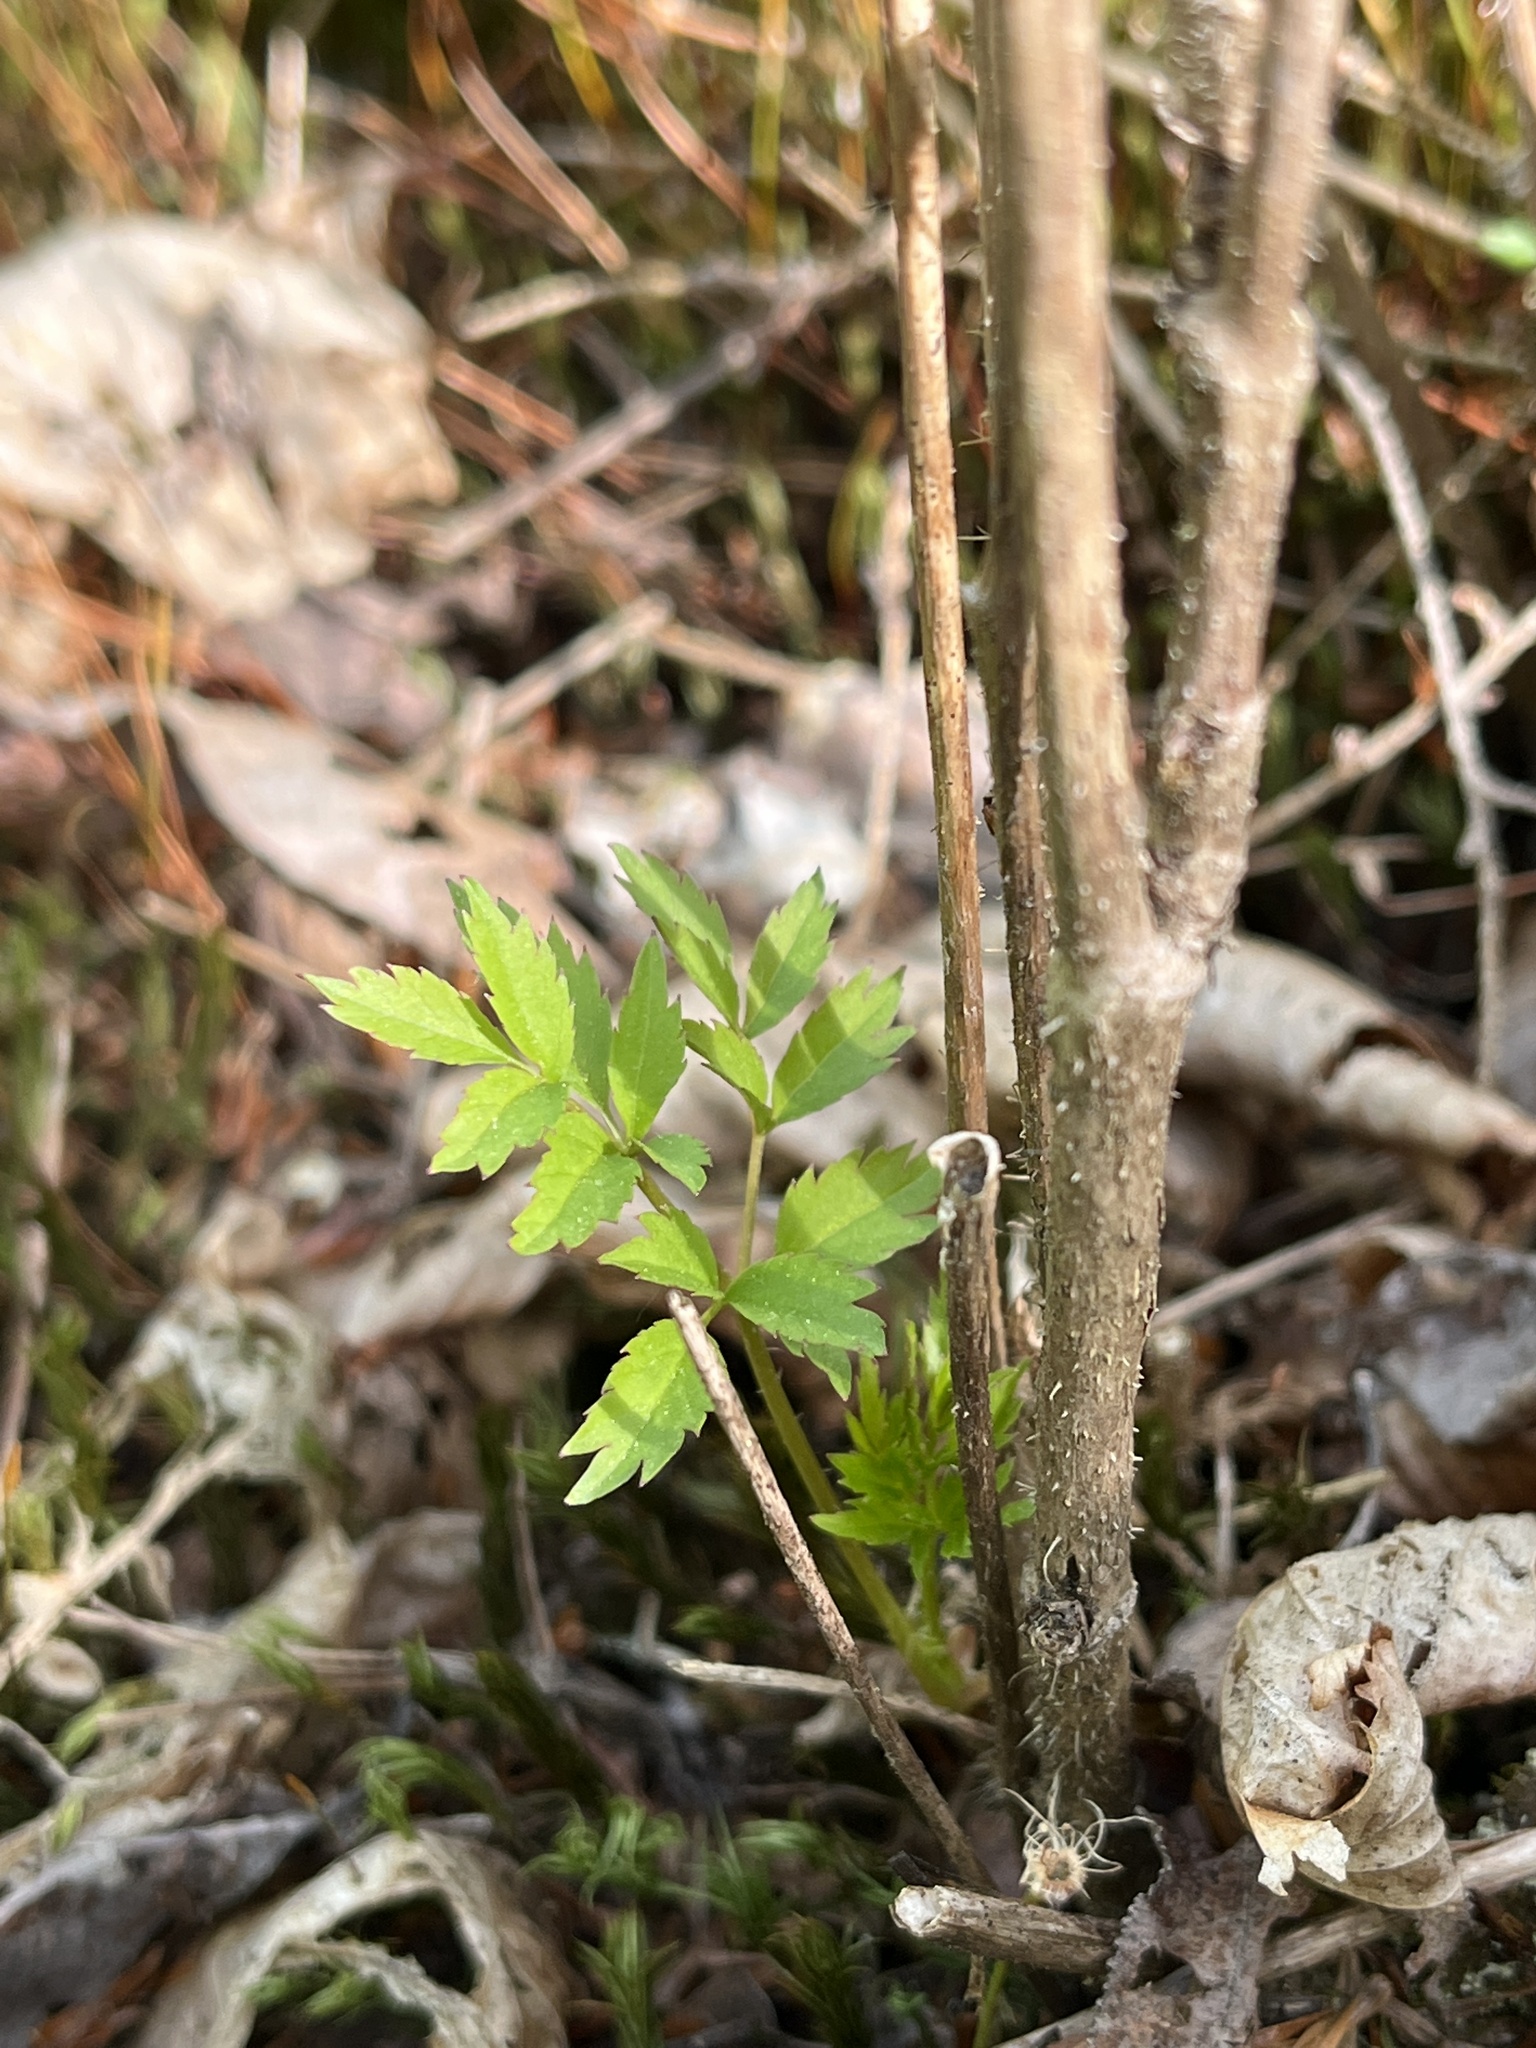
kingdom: Plantae
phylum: Tracheophyta
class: Magnoliopsida
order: Apiales
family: Araliaceae
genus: Aralia
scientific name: Aralia hispida
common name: Bristly sarsaparilla
